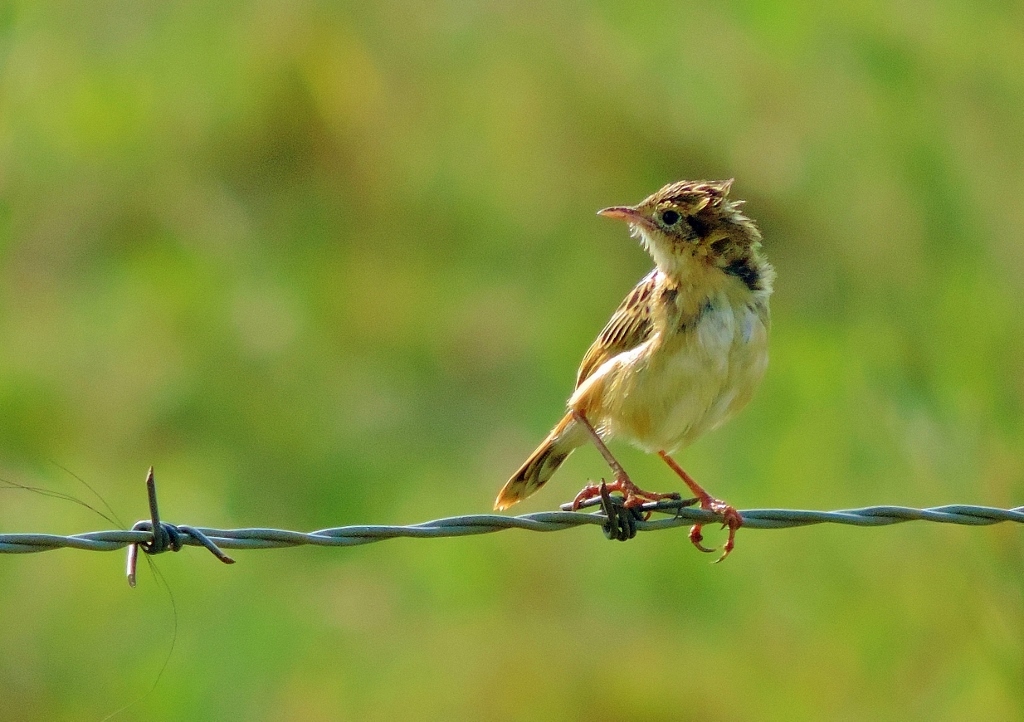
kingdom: Animalia
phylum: Chordata
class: Aves
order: Passeriformes
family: Cisticolidae
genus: Cisticola
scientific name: Cisticola juncidis
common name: Zitting cisticola
